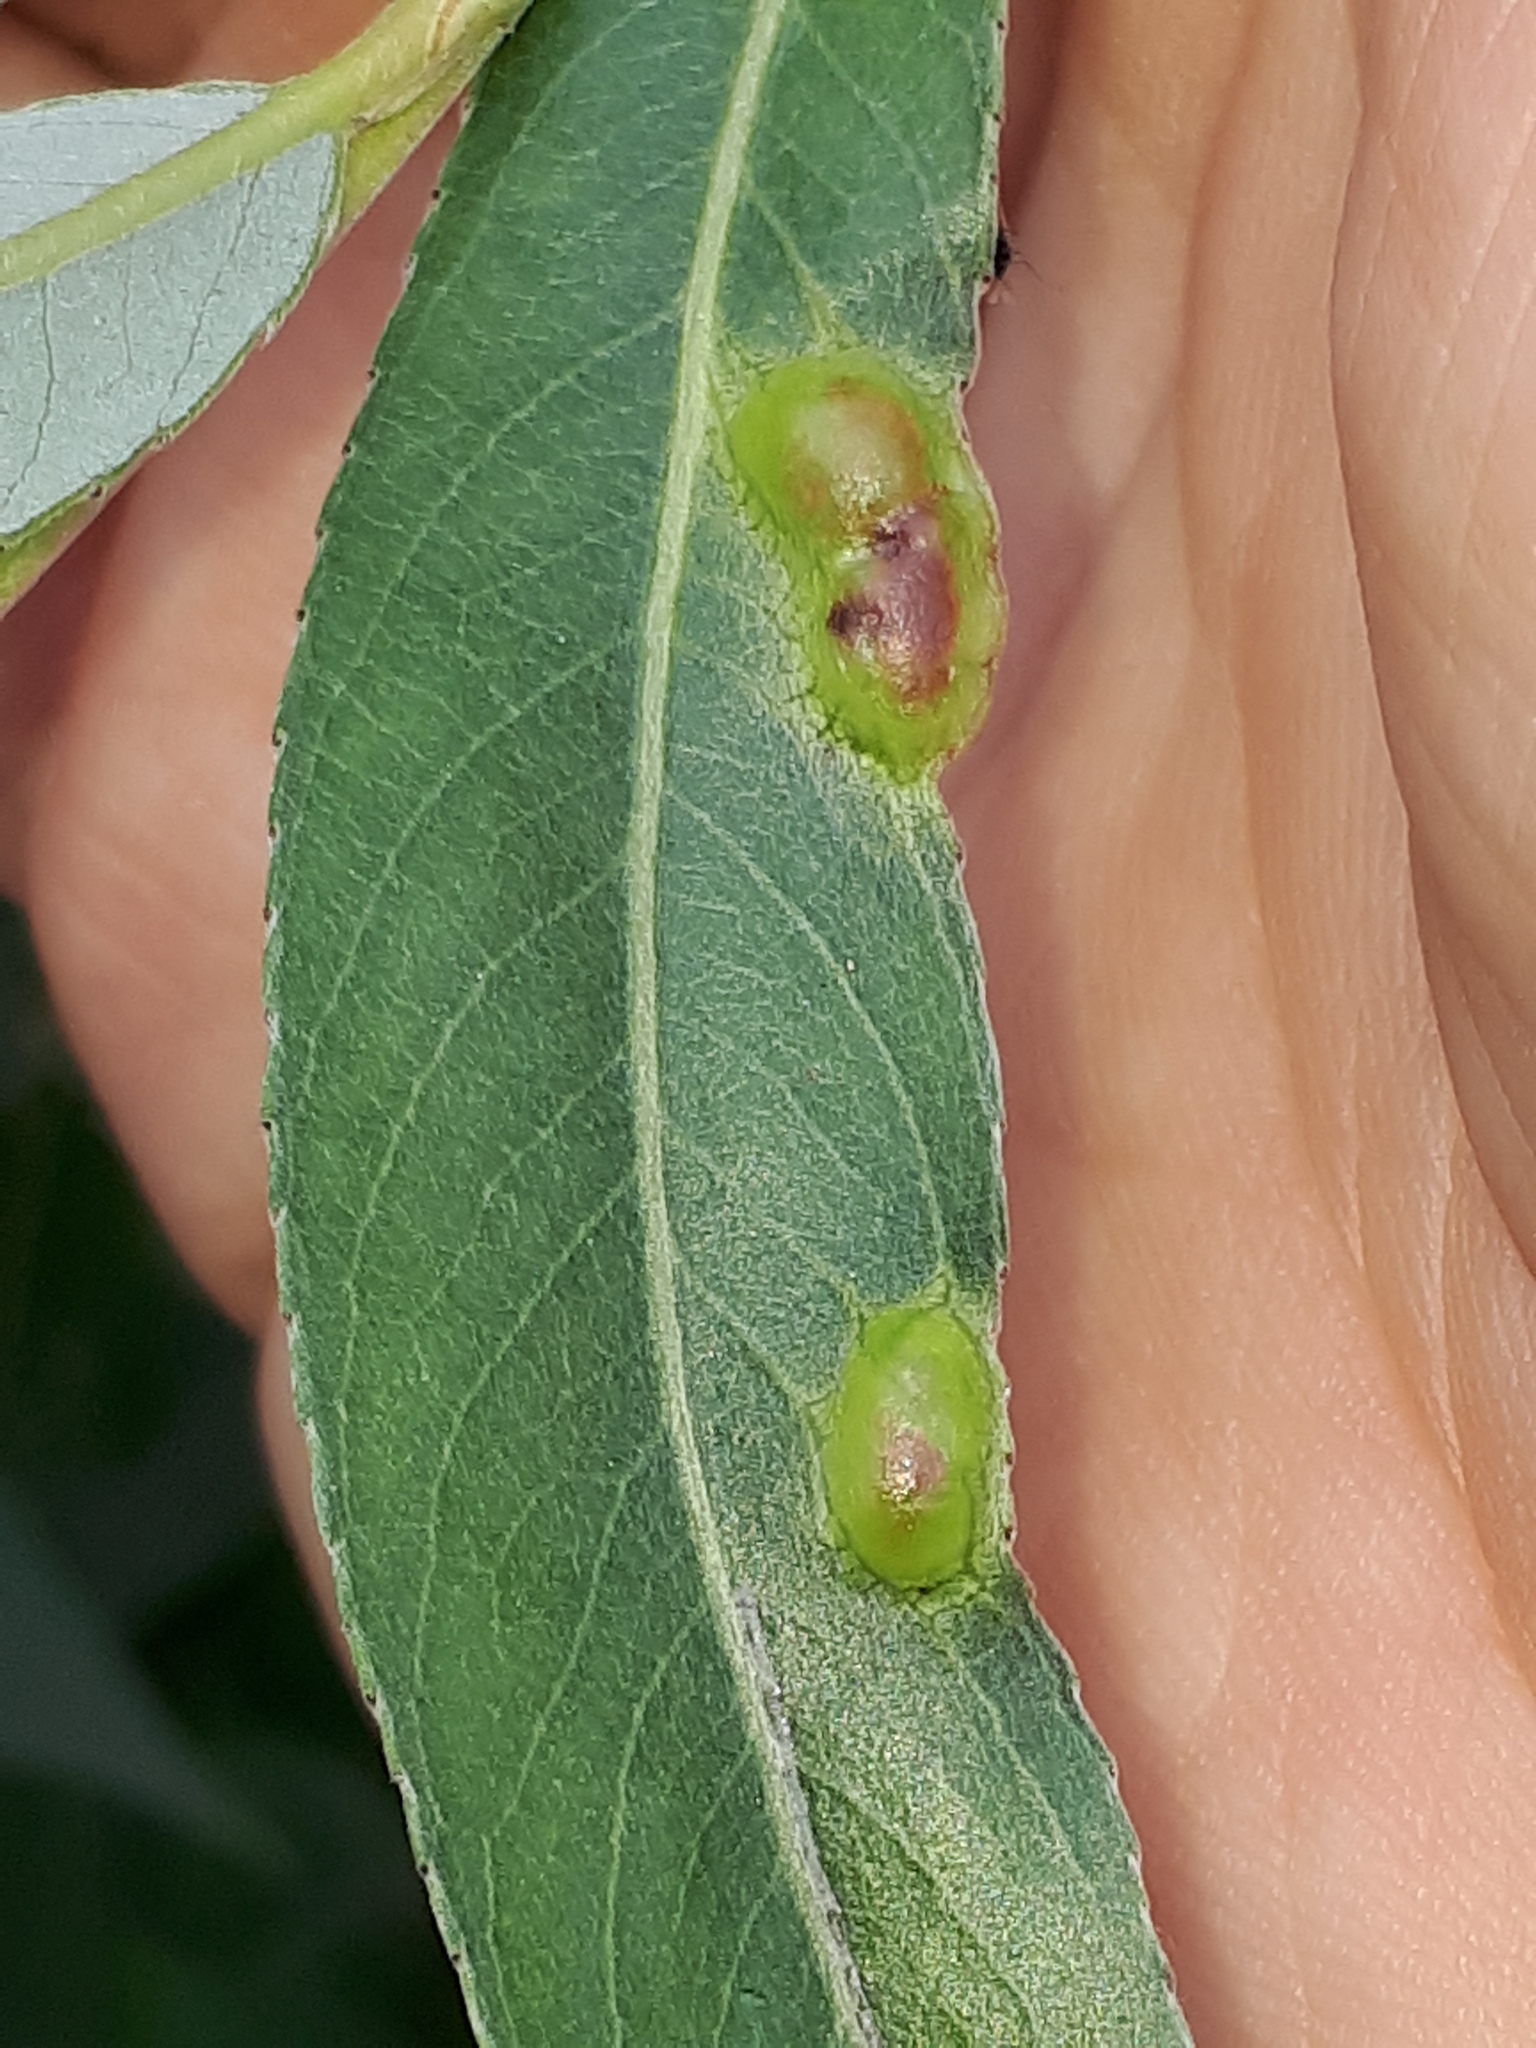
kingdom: Animalia
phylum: Arthropoda
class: Insecta
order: Hymenoptera
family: Tenthredinidae
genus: Pontania
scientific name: Pontania proxima
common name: Common sawfly
